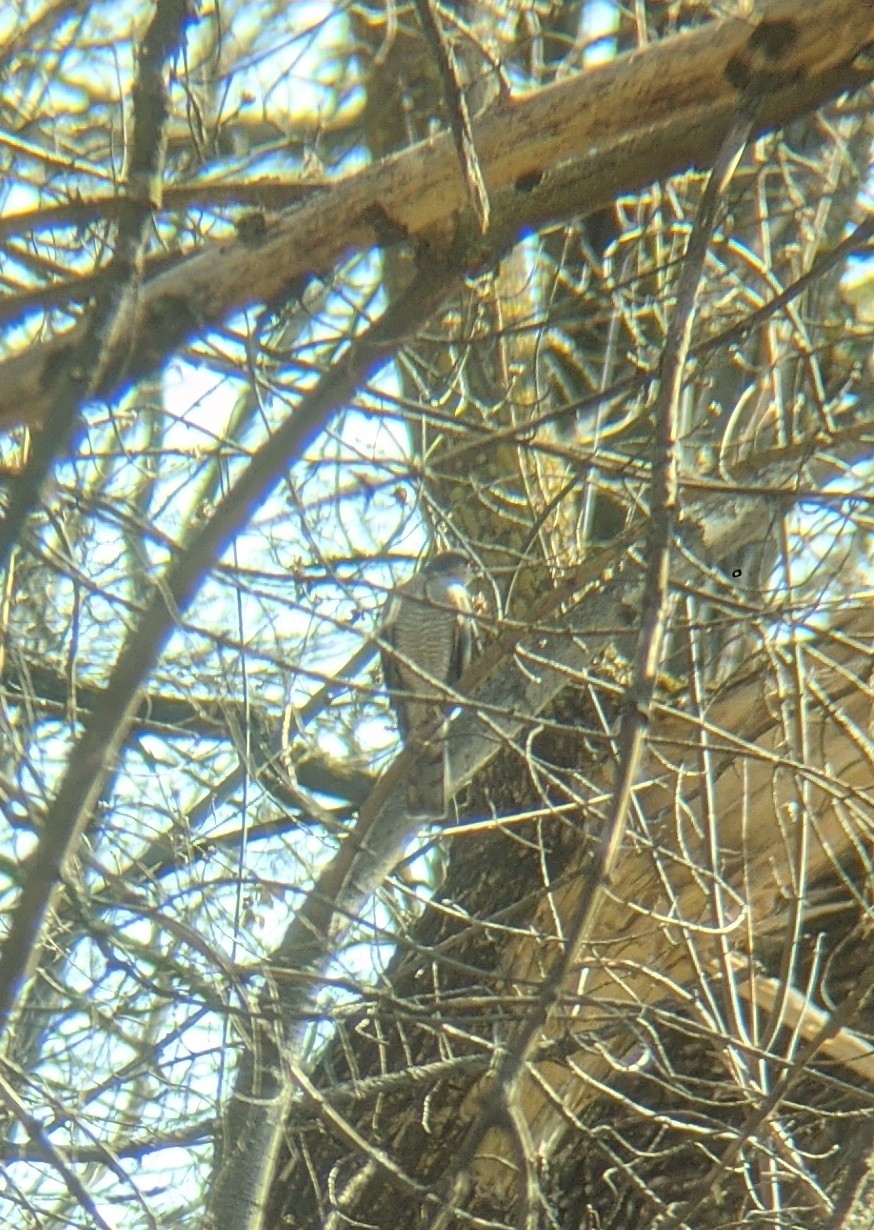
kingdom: Animalia
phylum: Chordata
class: Aves
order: Accipitriformes
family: Accipitridae
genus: Accipiter
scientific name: Accipiter nisus
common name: Eurasian sparrowhawk
